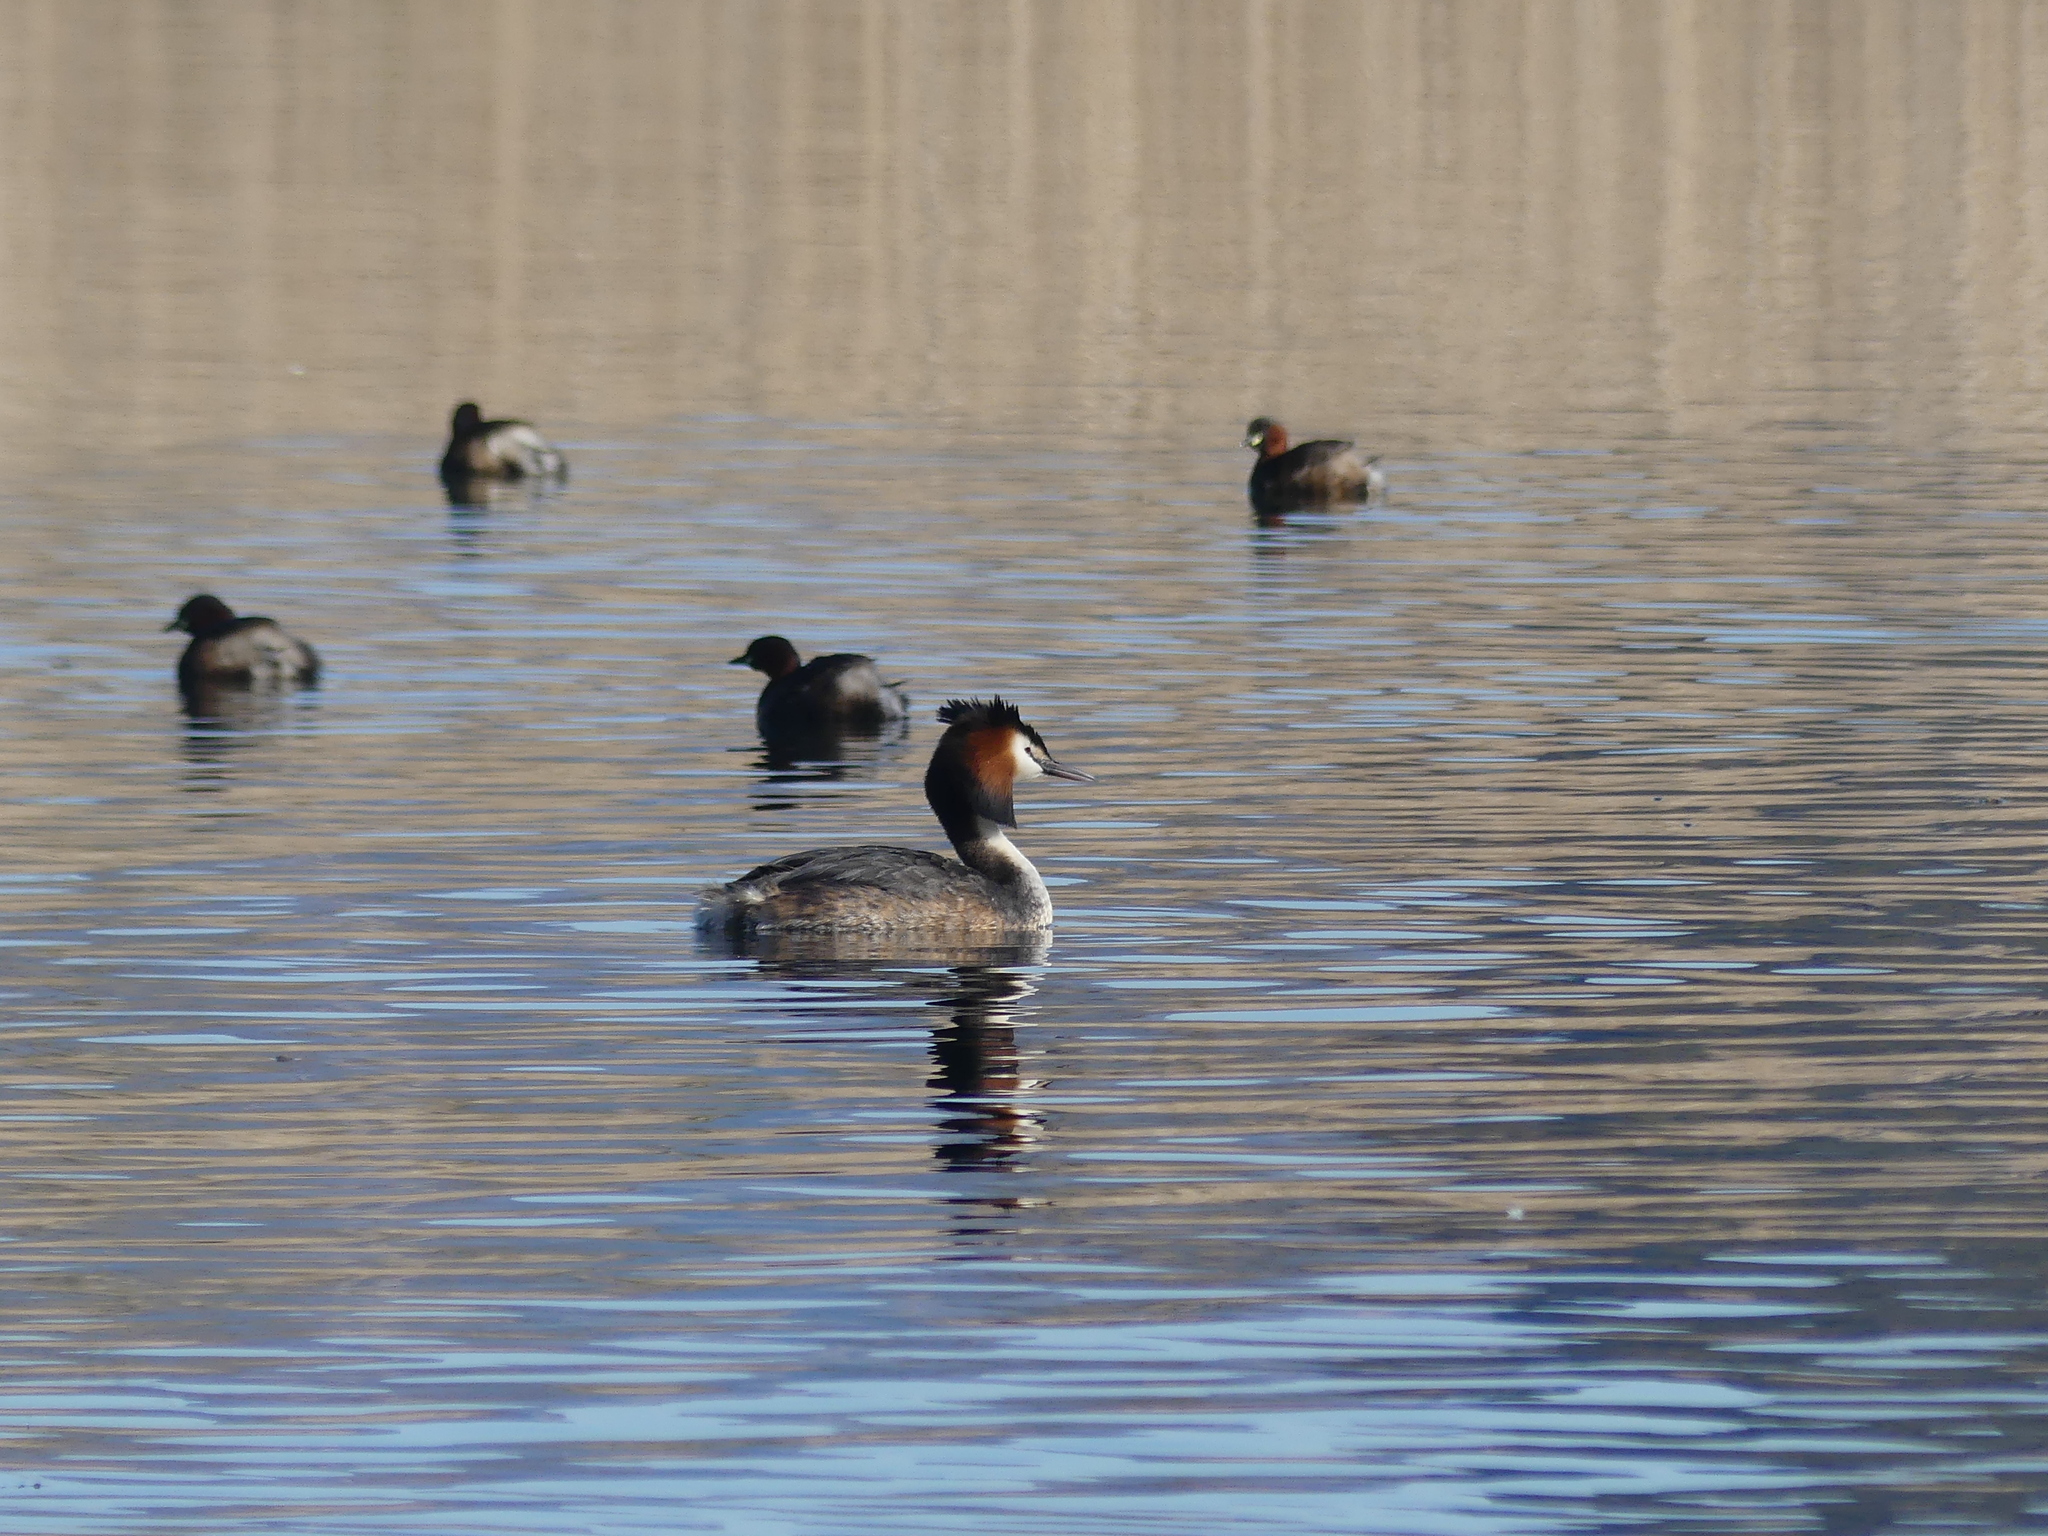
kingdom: Animalia
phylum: Chordata
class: Aves
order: Podicipediformes
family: Podicipedidae
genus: Podiceps
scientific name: Podiceps cristatus
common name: Great crested grebe
